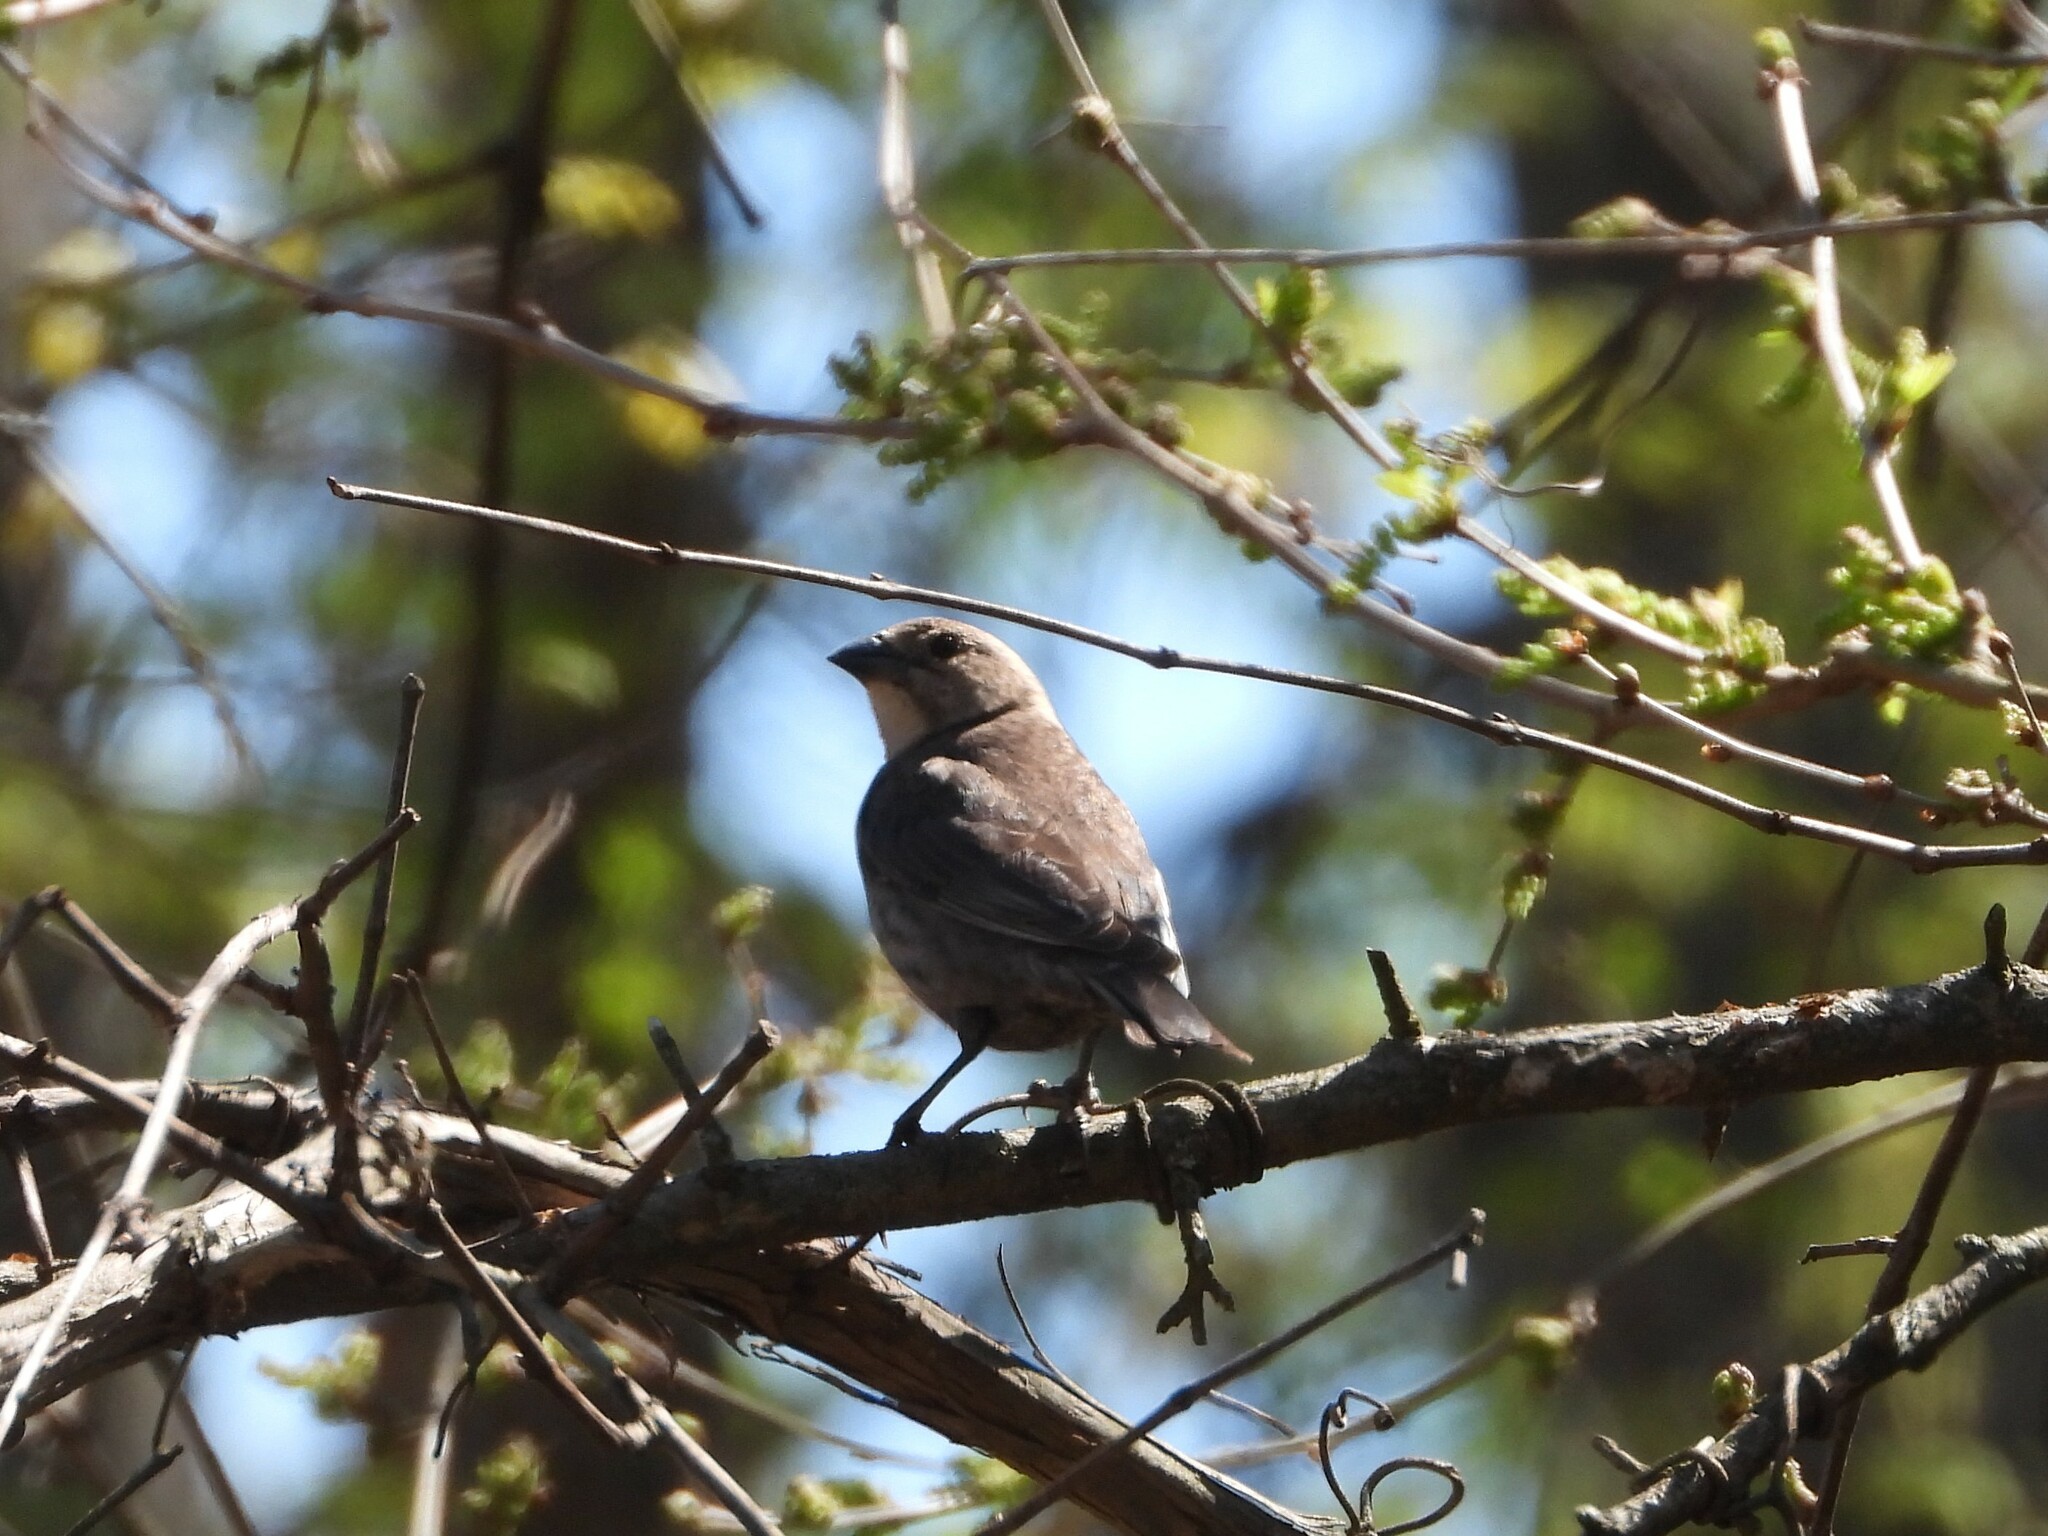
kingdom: Animalia
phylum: Chordata
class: Aves
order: Passeriformes
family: Icteridae
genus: Molothrus
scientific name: Molothrus ater
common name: Brown-headed cowbird
